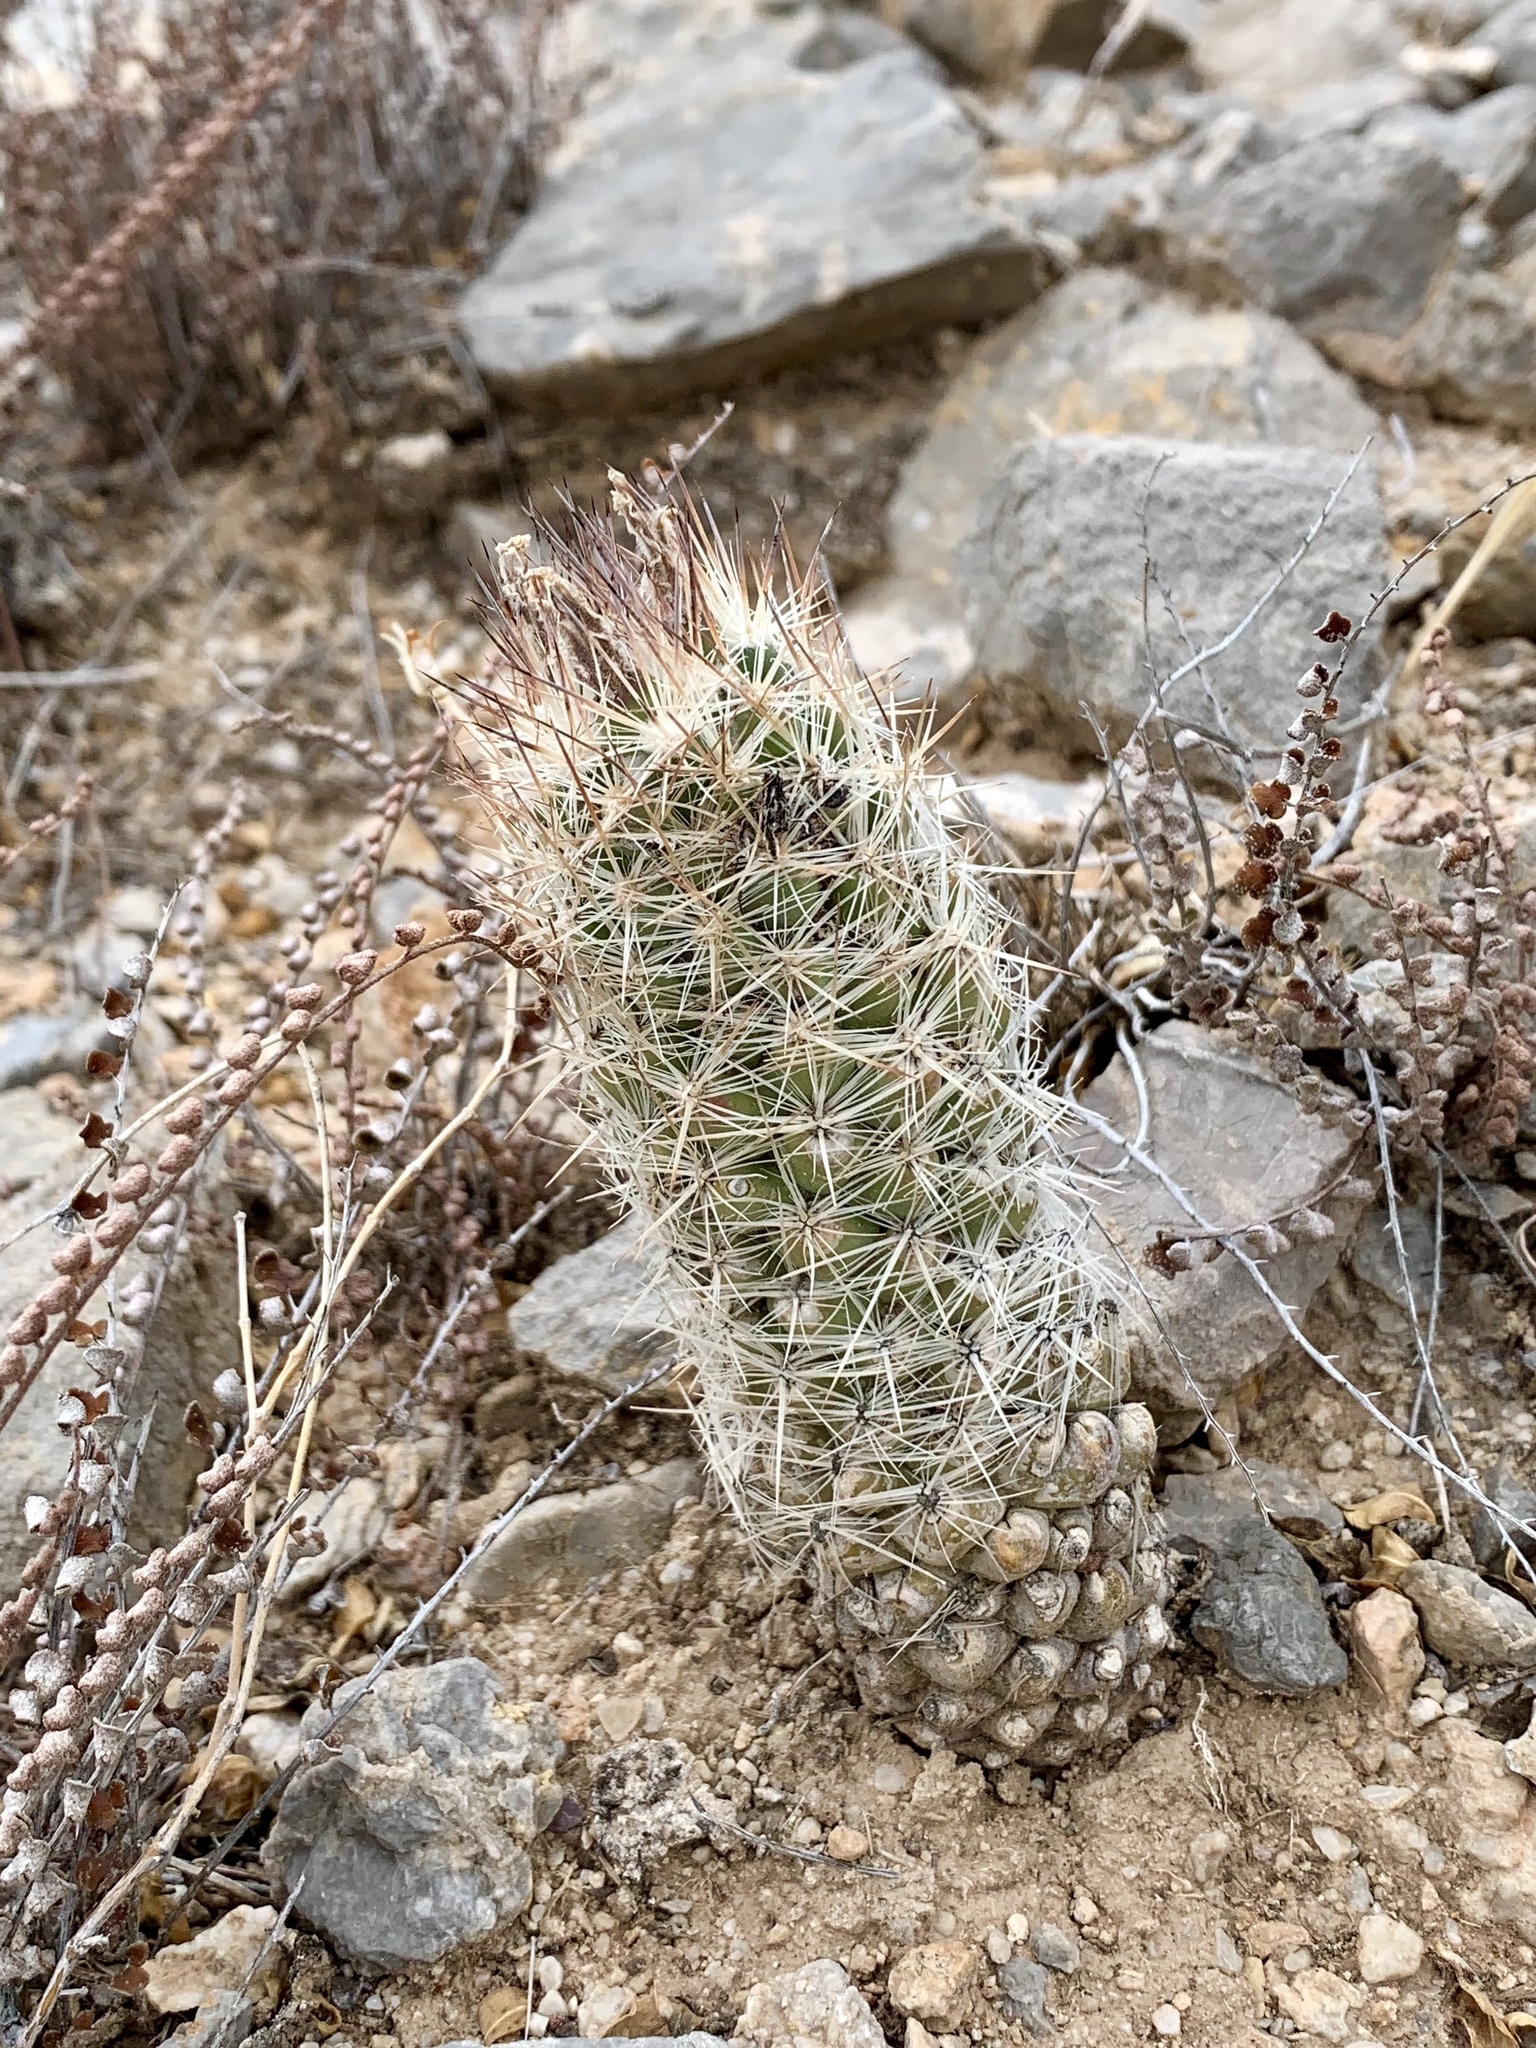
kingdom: Plantae
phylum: Tracheophyta
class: Magnoliopsida
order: Caryophyllales
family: Cactaceae
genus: Pelecyphora
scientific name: Pelecyphora tuberculosa
